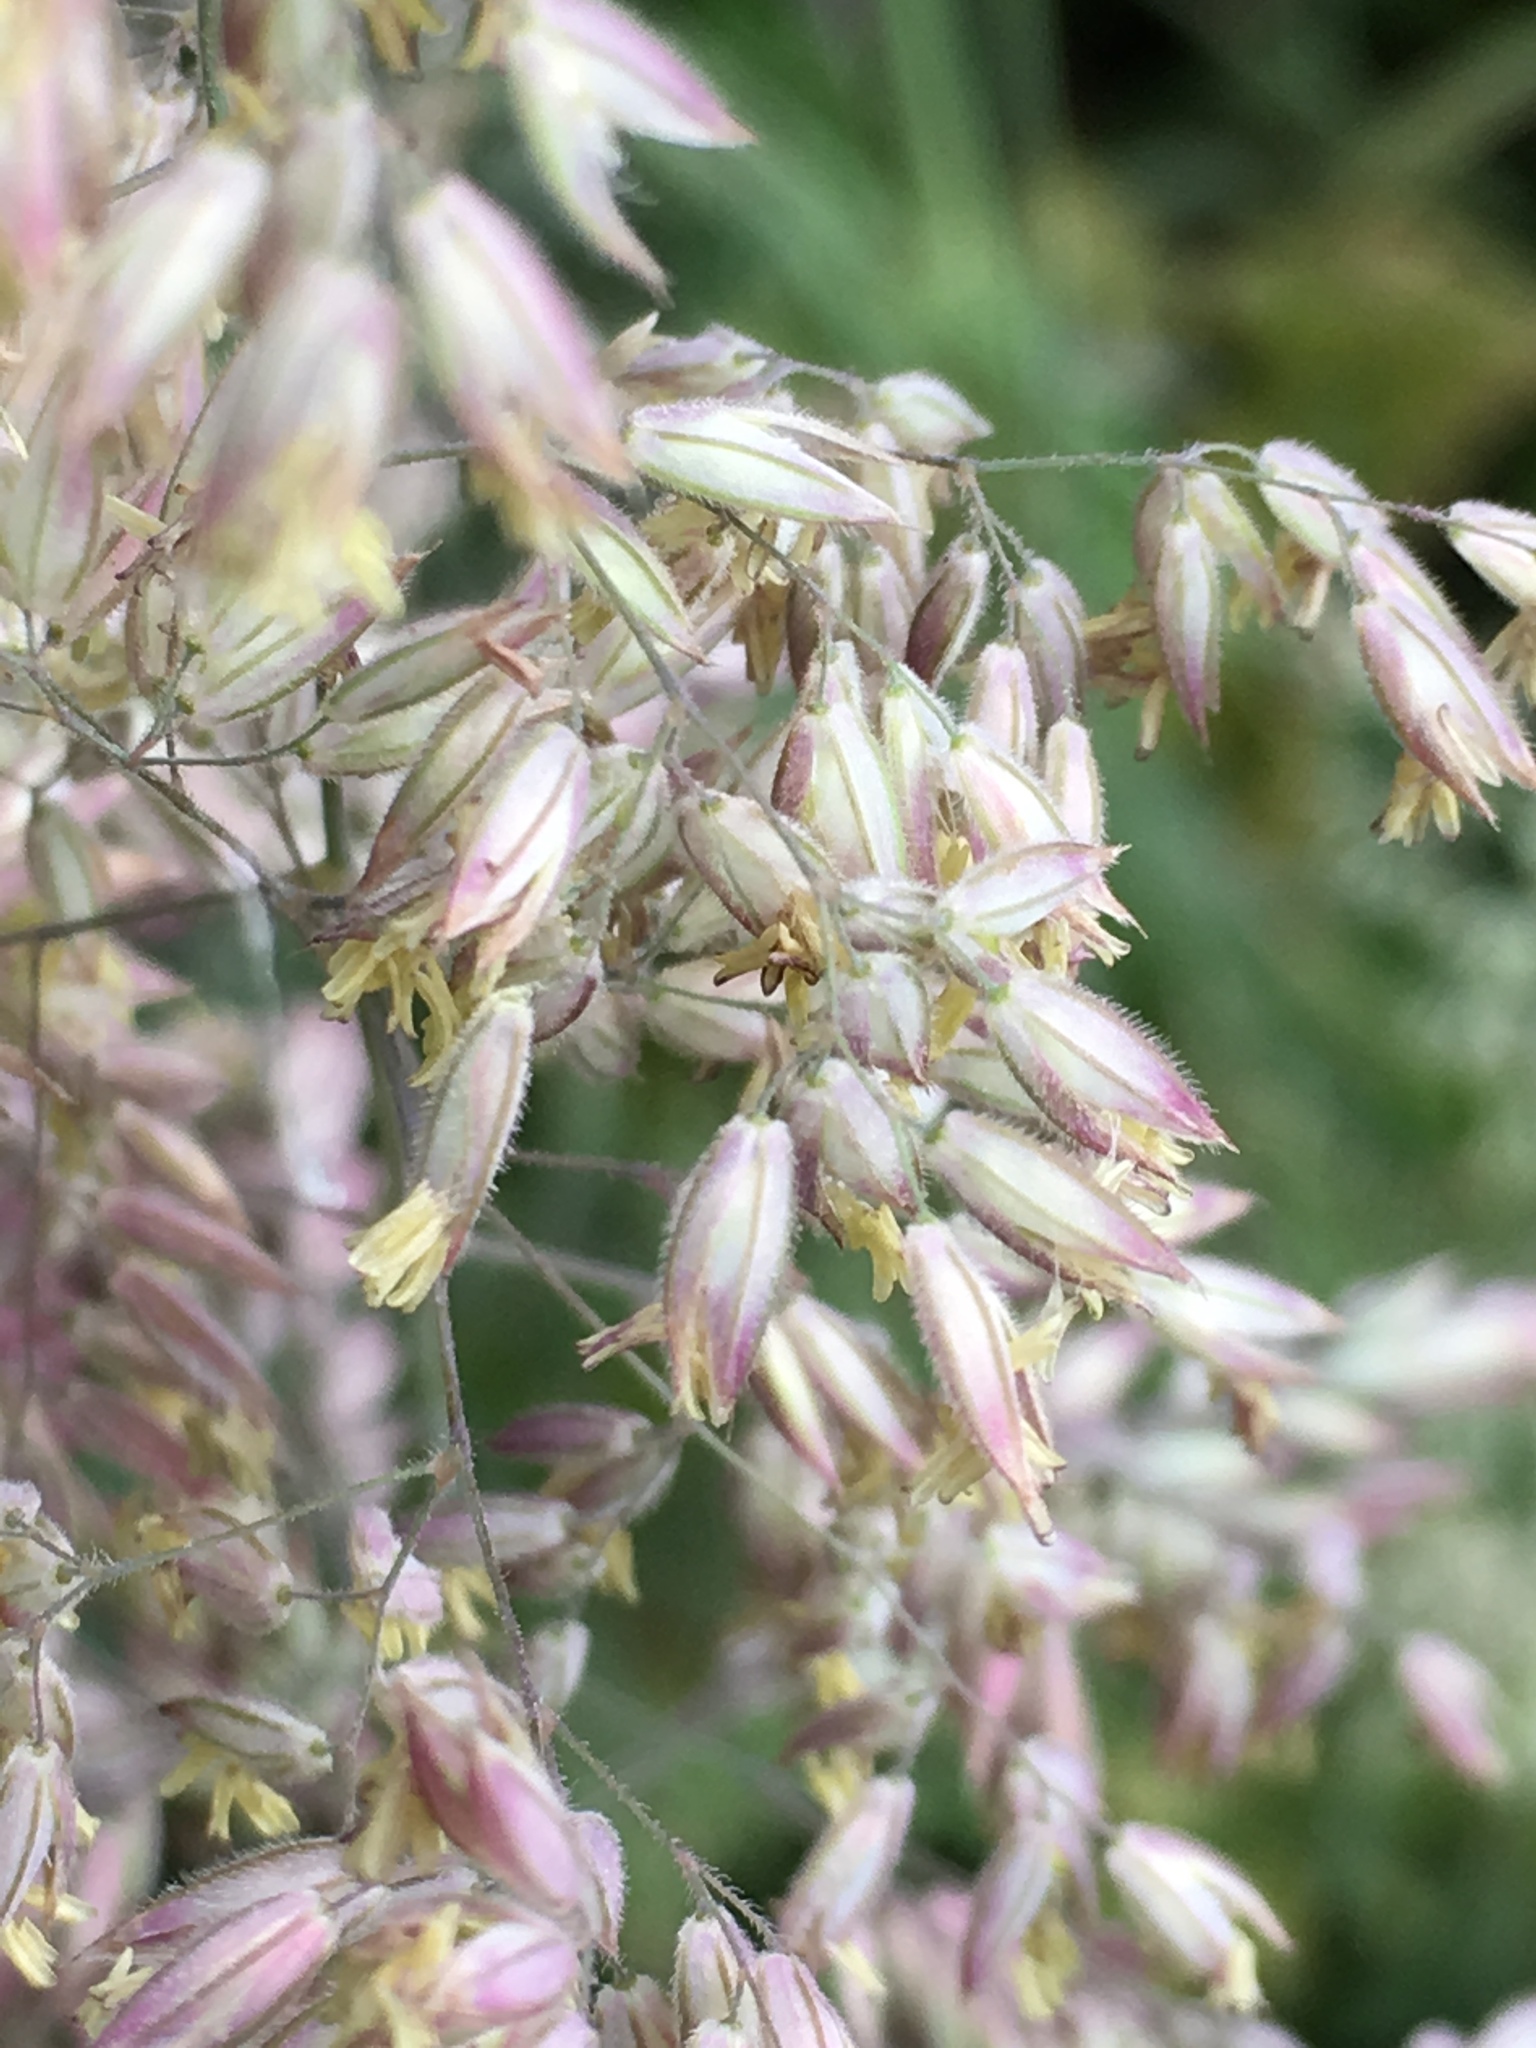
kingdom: Plantae
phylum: Tracheophyta
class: Liliopsida
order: Poales
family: Poaceae
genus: Holcus
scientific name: Holcus lanatus
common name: Yorkshire-fog
